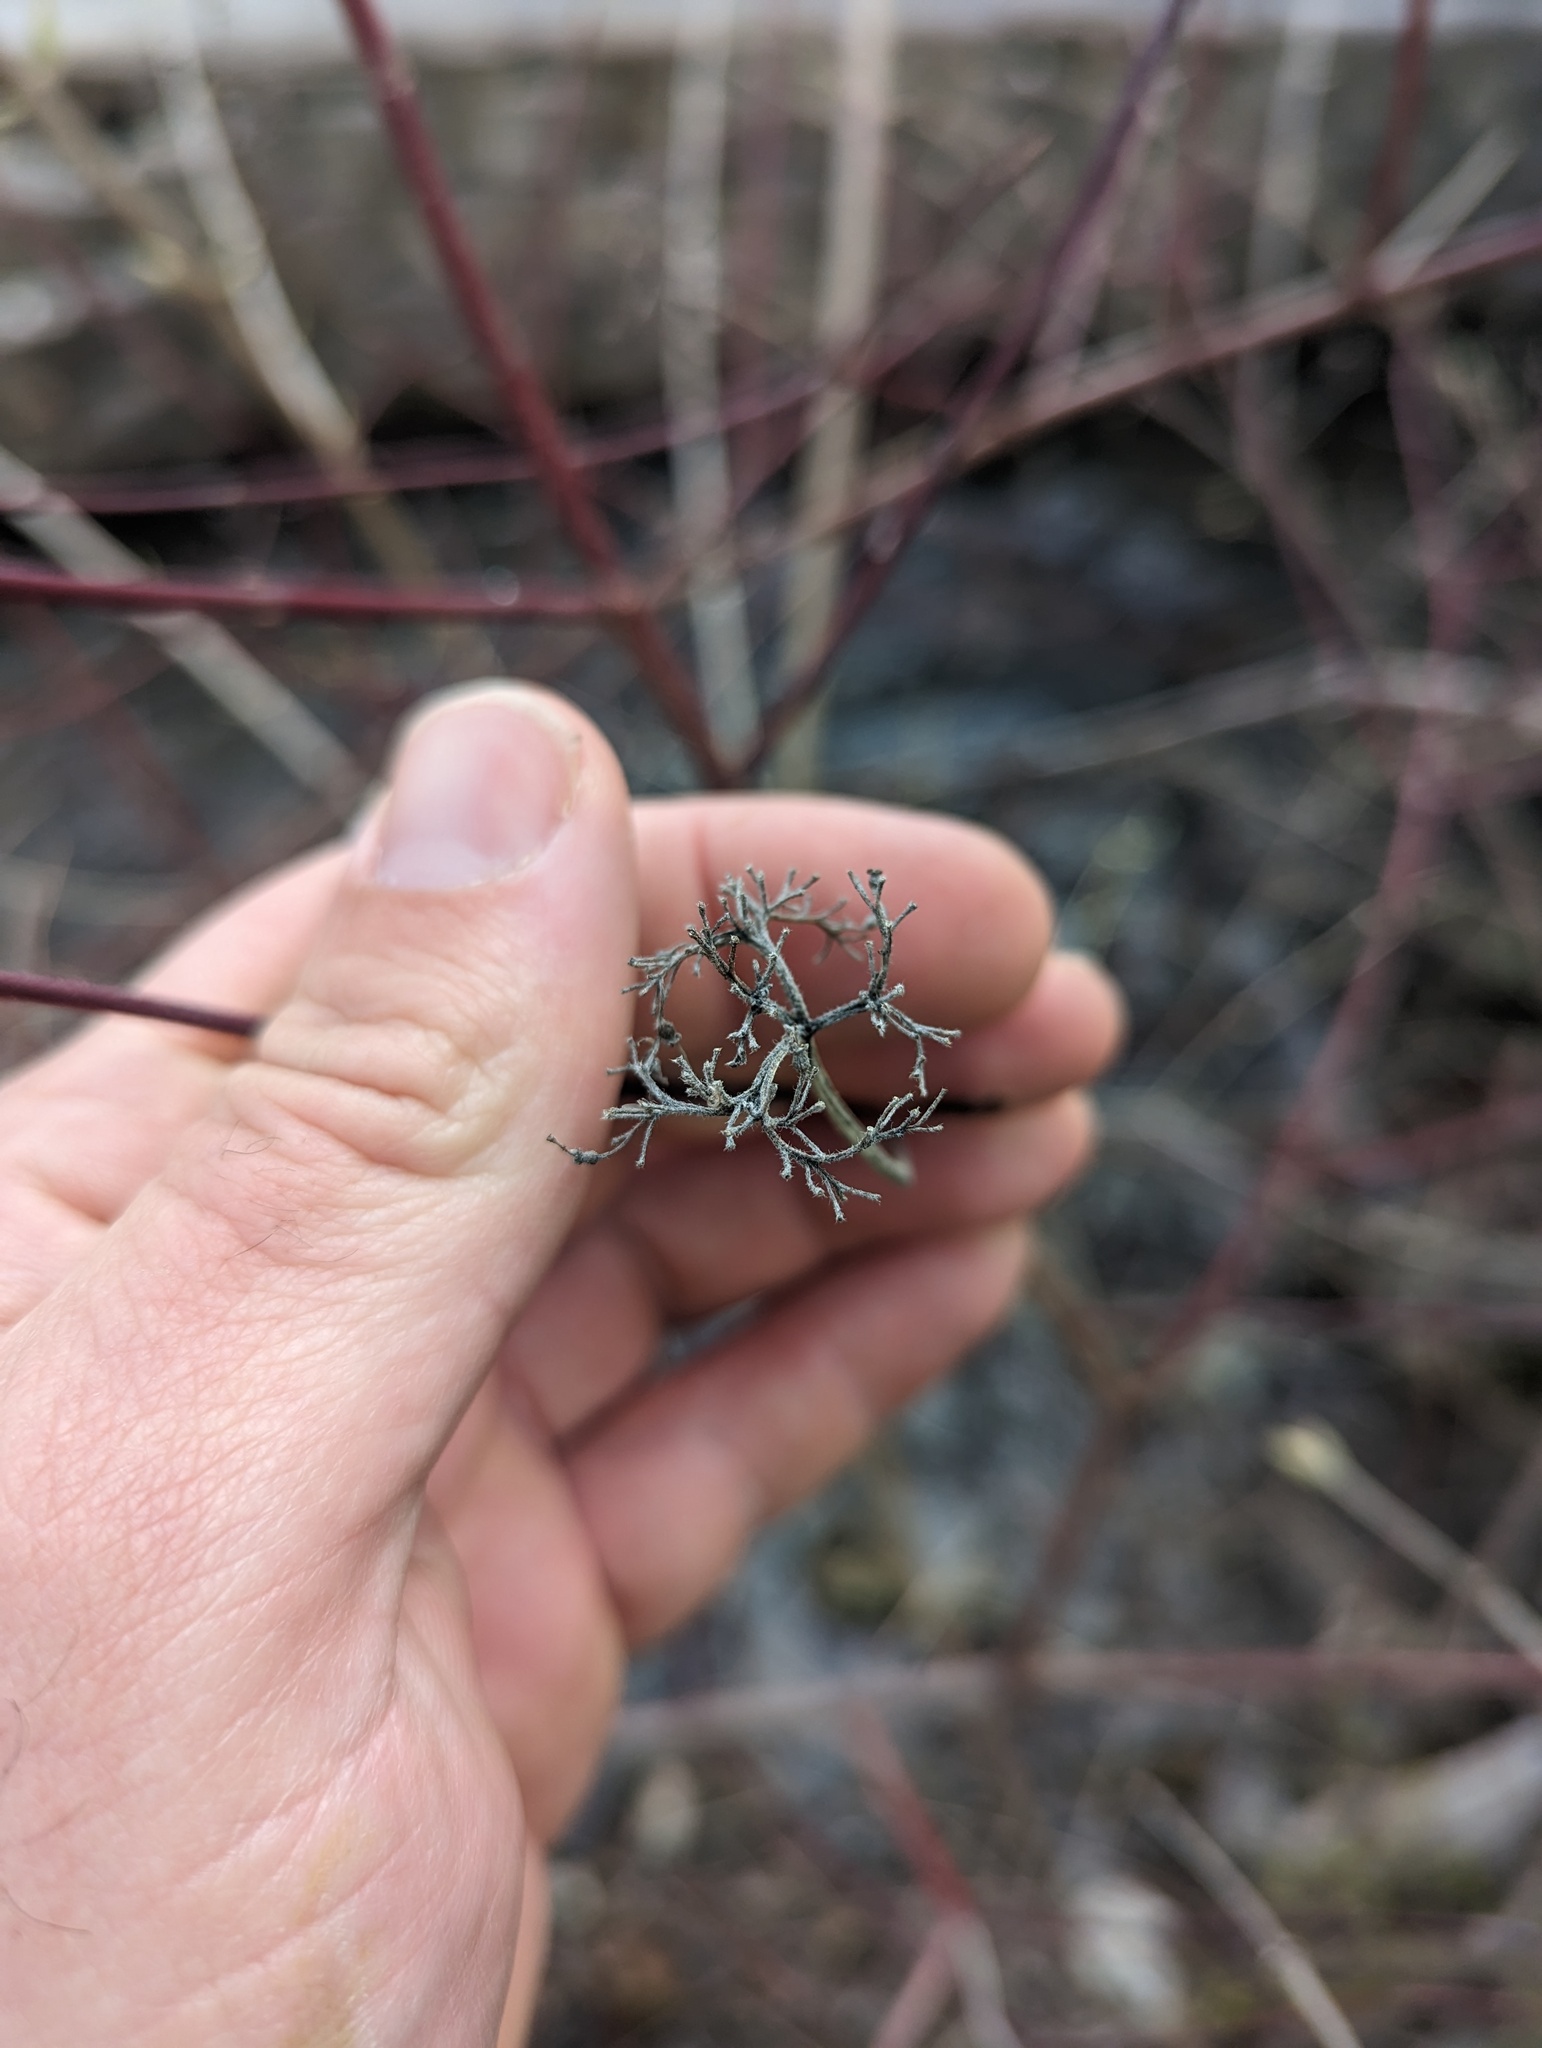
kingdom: Plantae
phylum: Tracheophyta
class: Magnoliopsida
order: Cornales
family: Cornaceae
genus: Cornus
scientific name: Cornus amomum
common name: Silky dogwood
